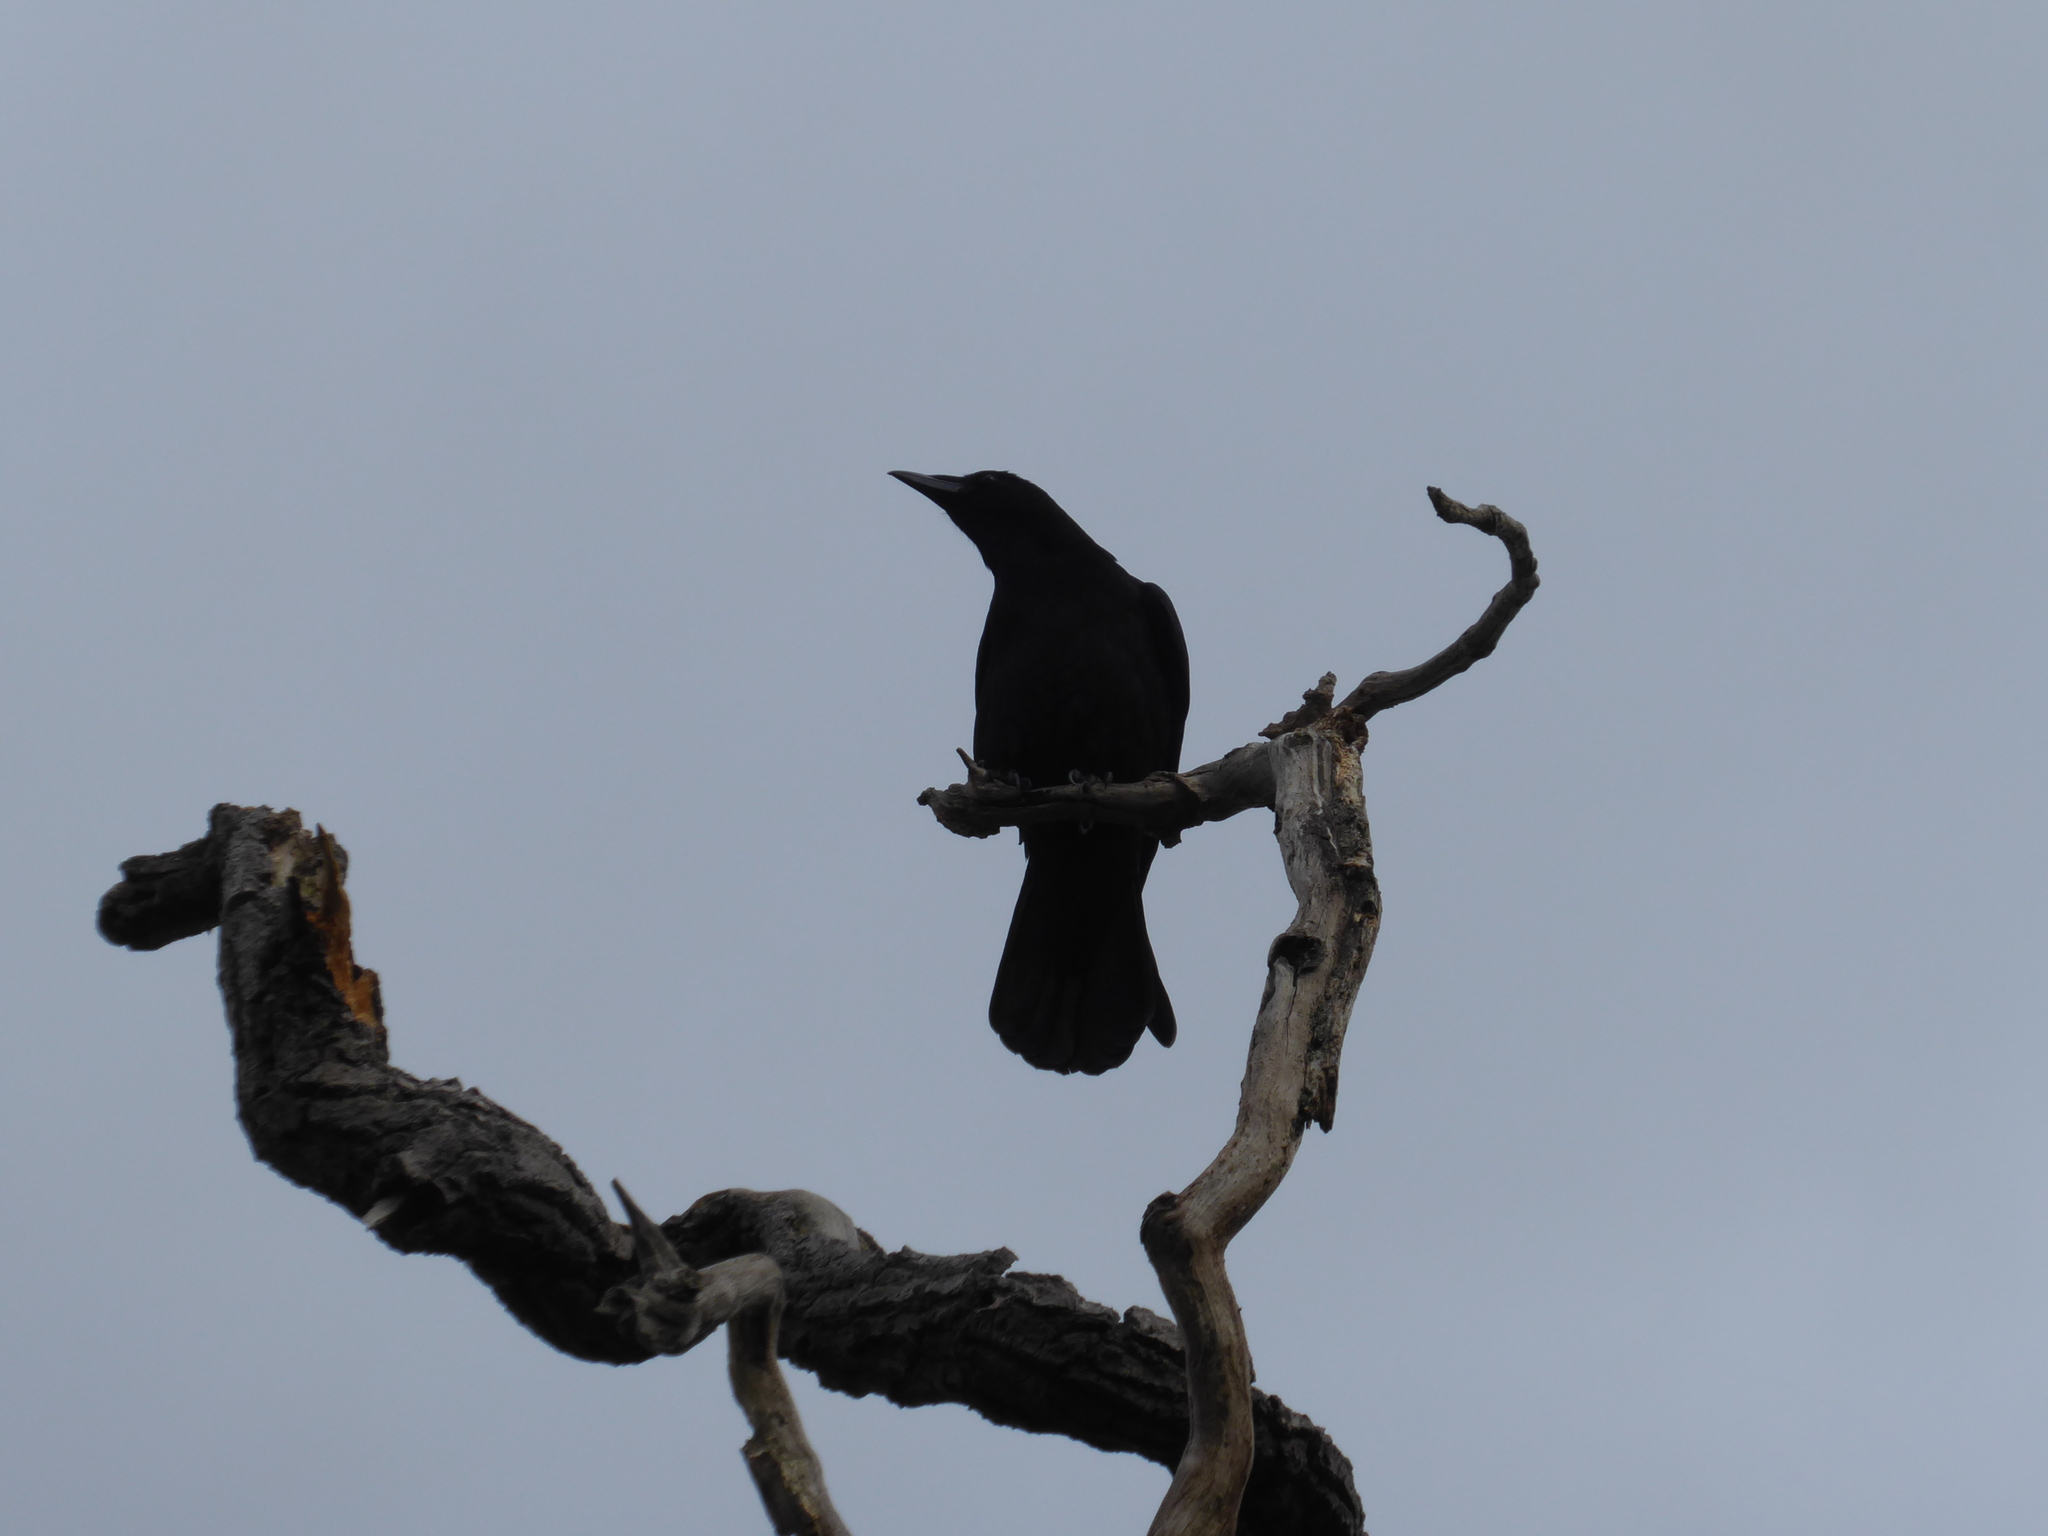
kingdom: Animalia
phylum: Chordata
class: Aves
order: Passeriformes
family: Corvidae
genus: Corvus
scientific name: Corvus corone
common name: Carrion crow
